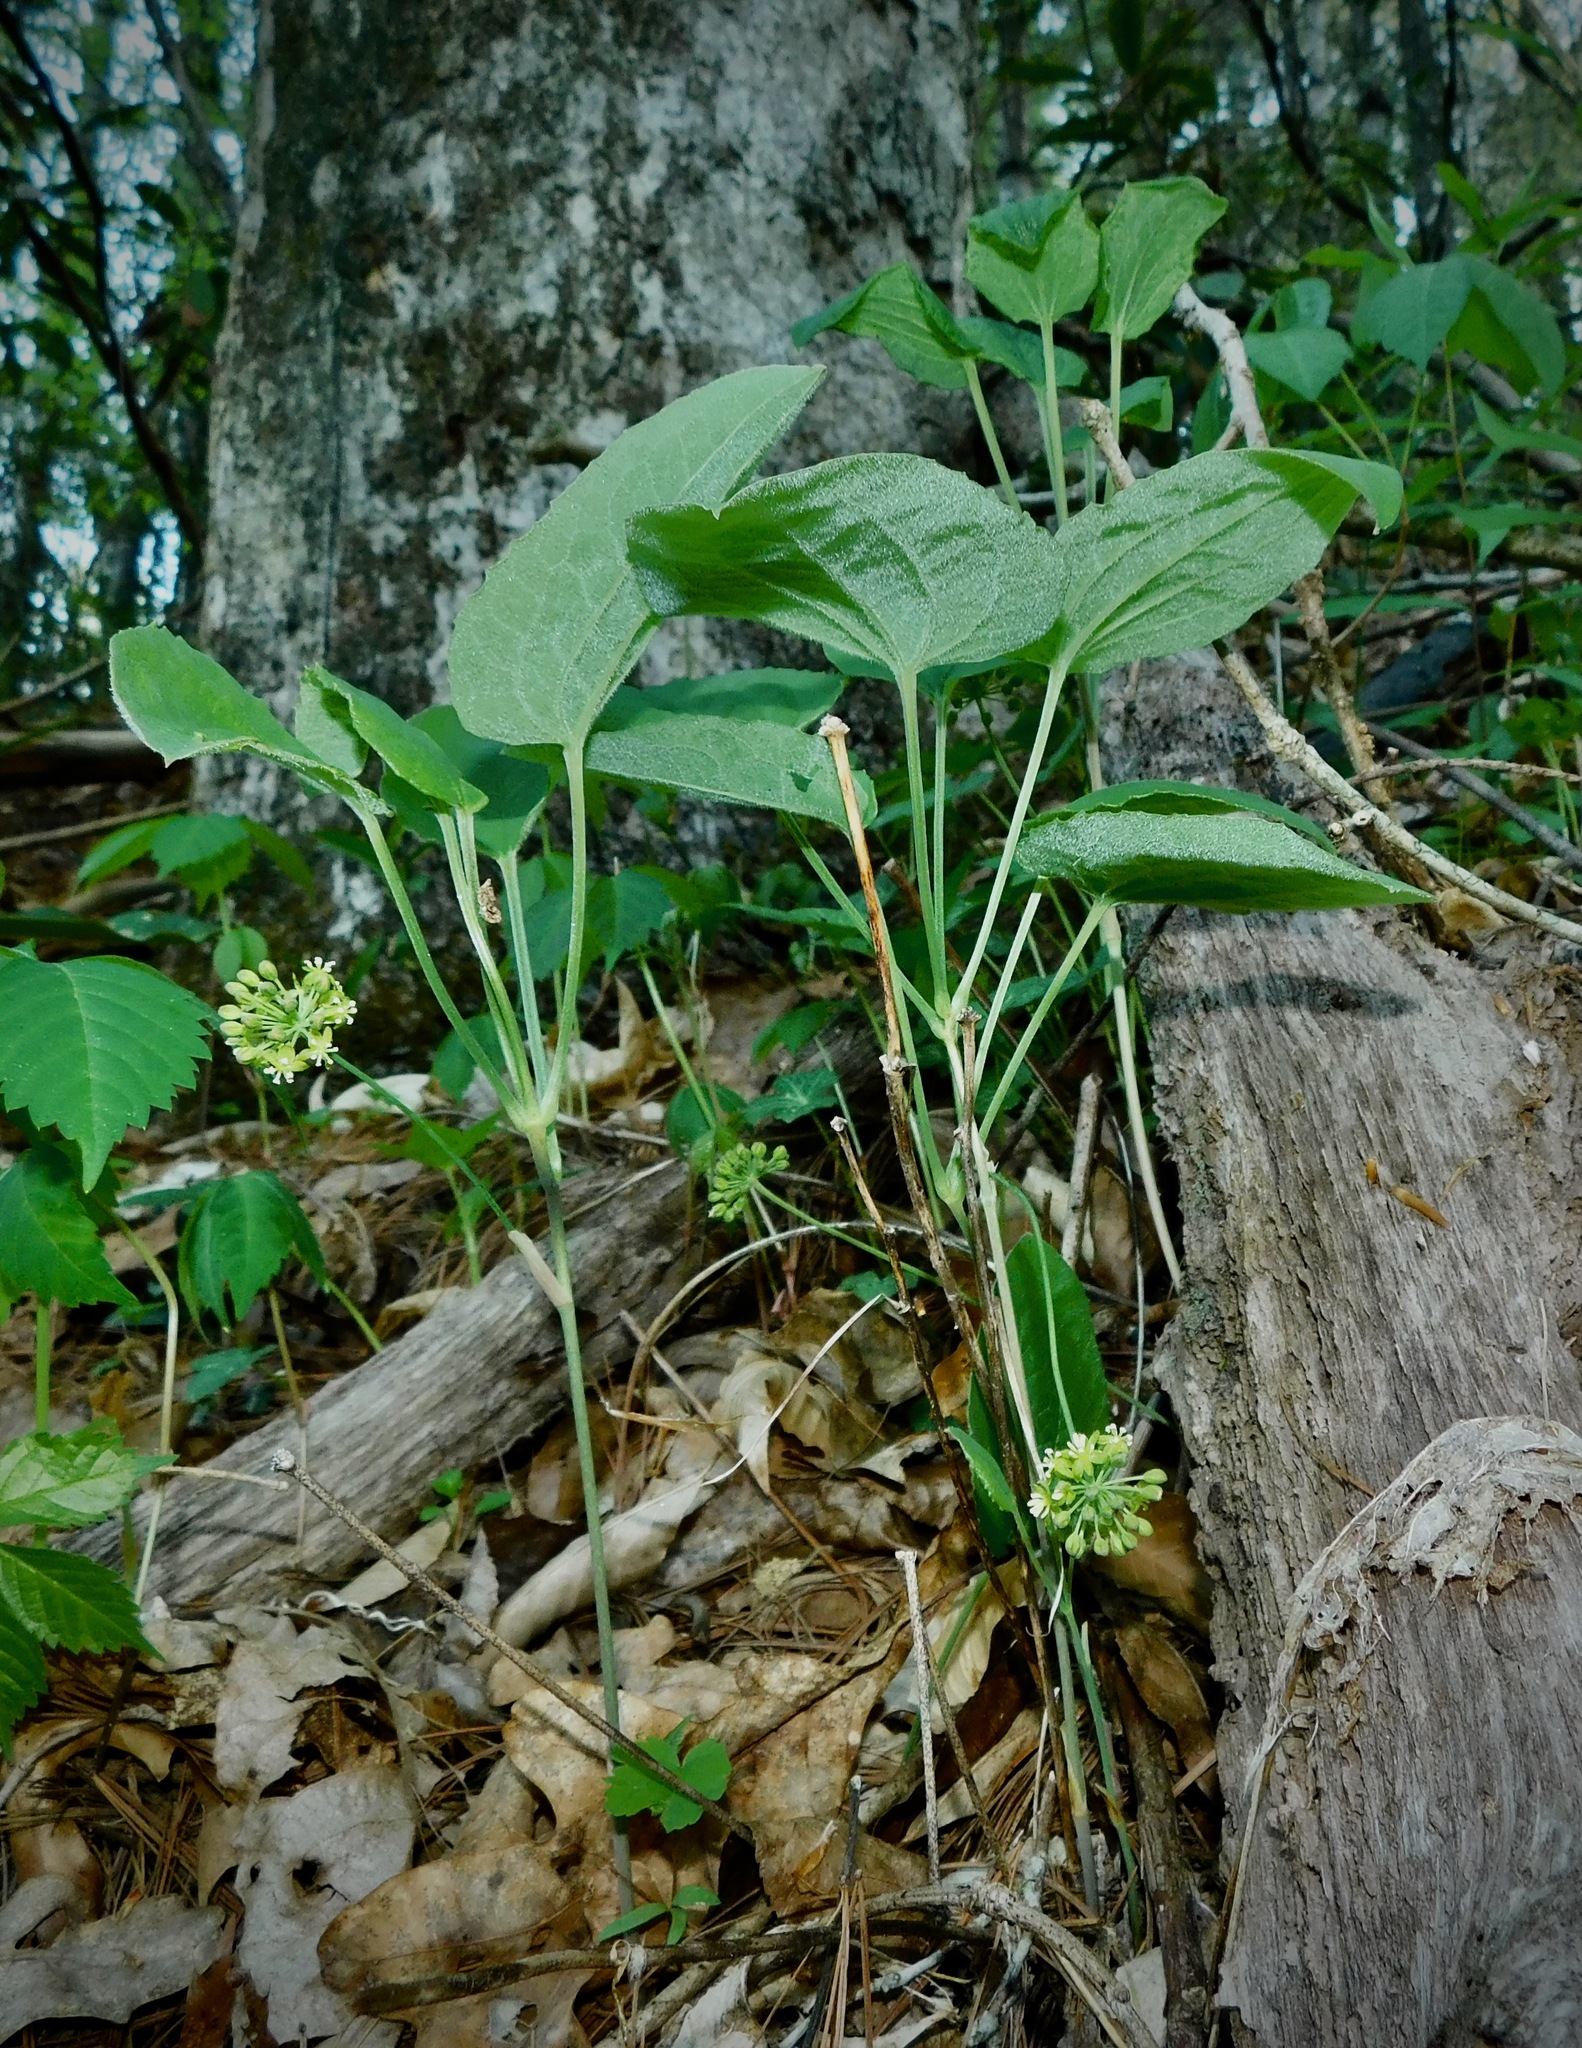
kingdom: Plantae
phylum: Tracheophyta
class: Liliopsida
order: Liliales
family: Smilacaceae
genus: Smilax
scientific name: Smilax hugeri
